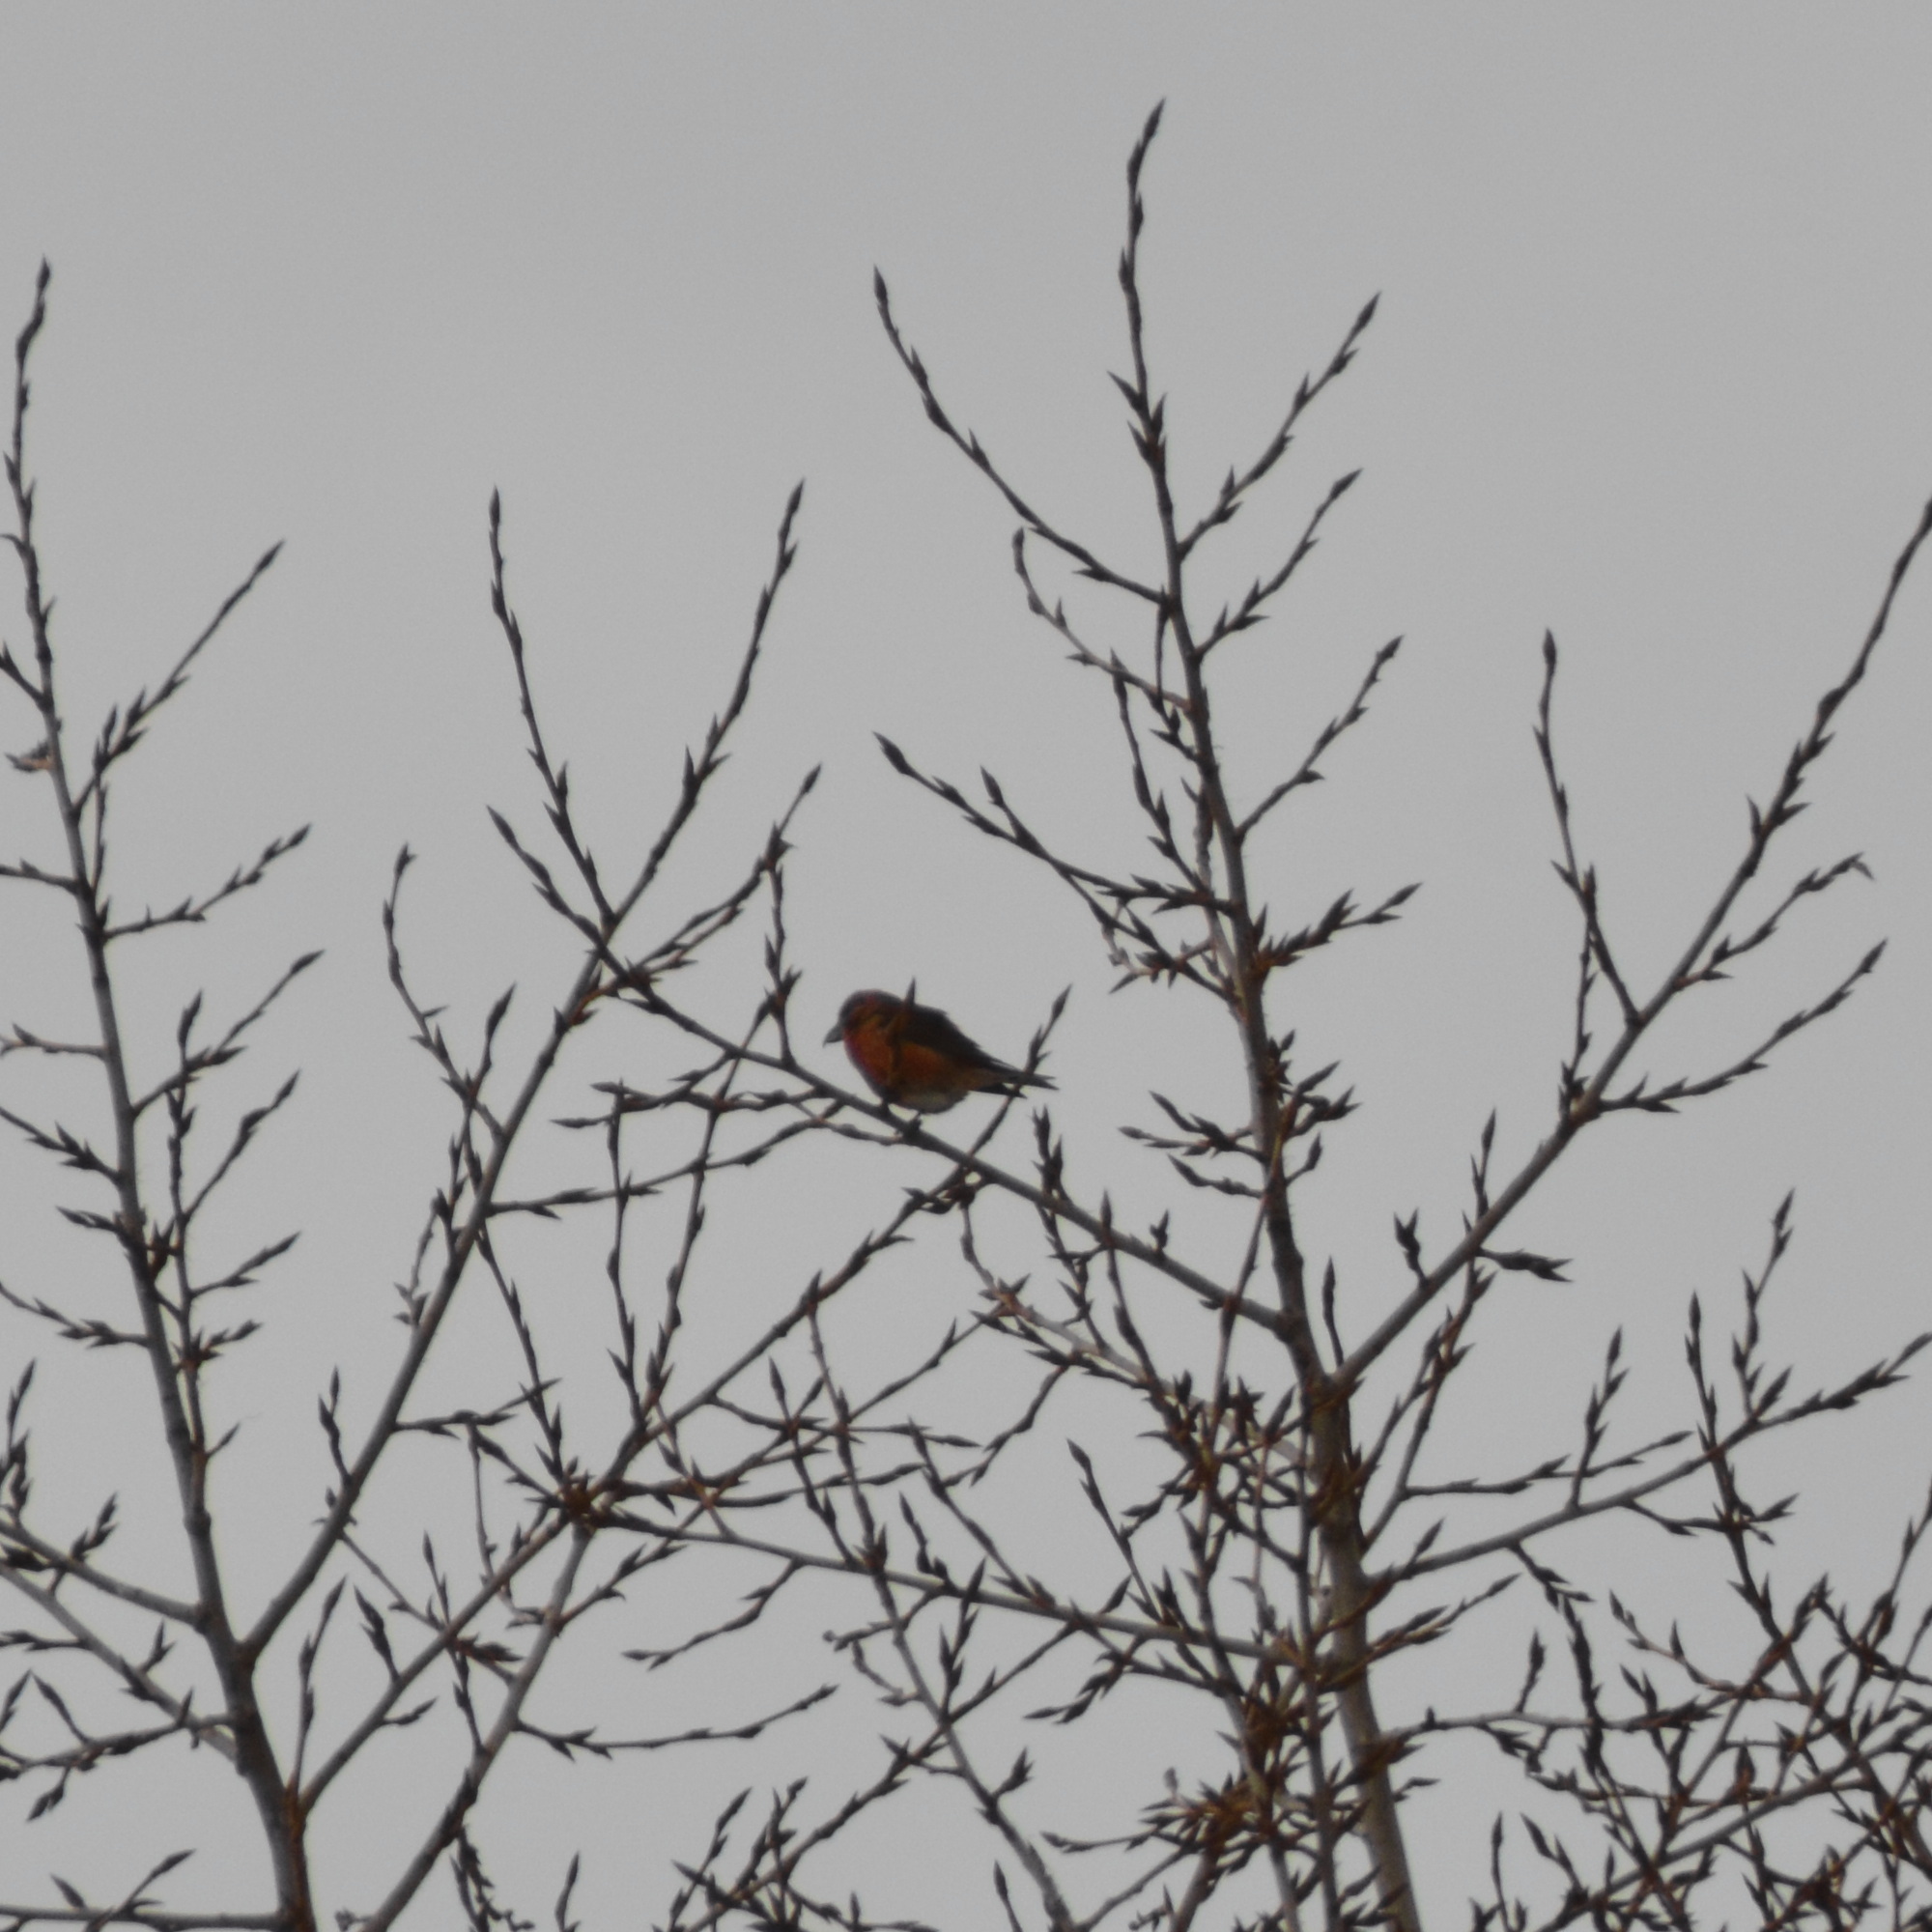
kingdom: Animalia
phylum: Chordata
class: Aves
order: Passeriformes
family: Fringillidae
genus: Loxia
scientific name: Loxia curvirostra
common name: Red crossbill
